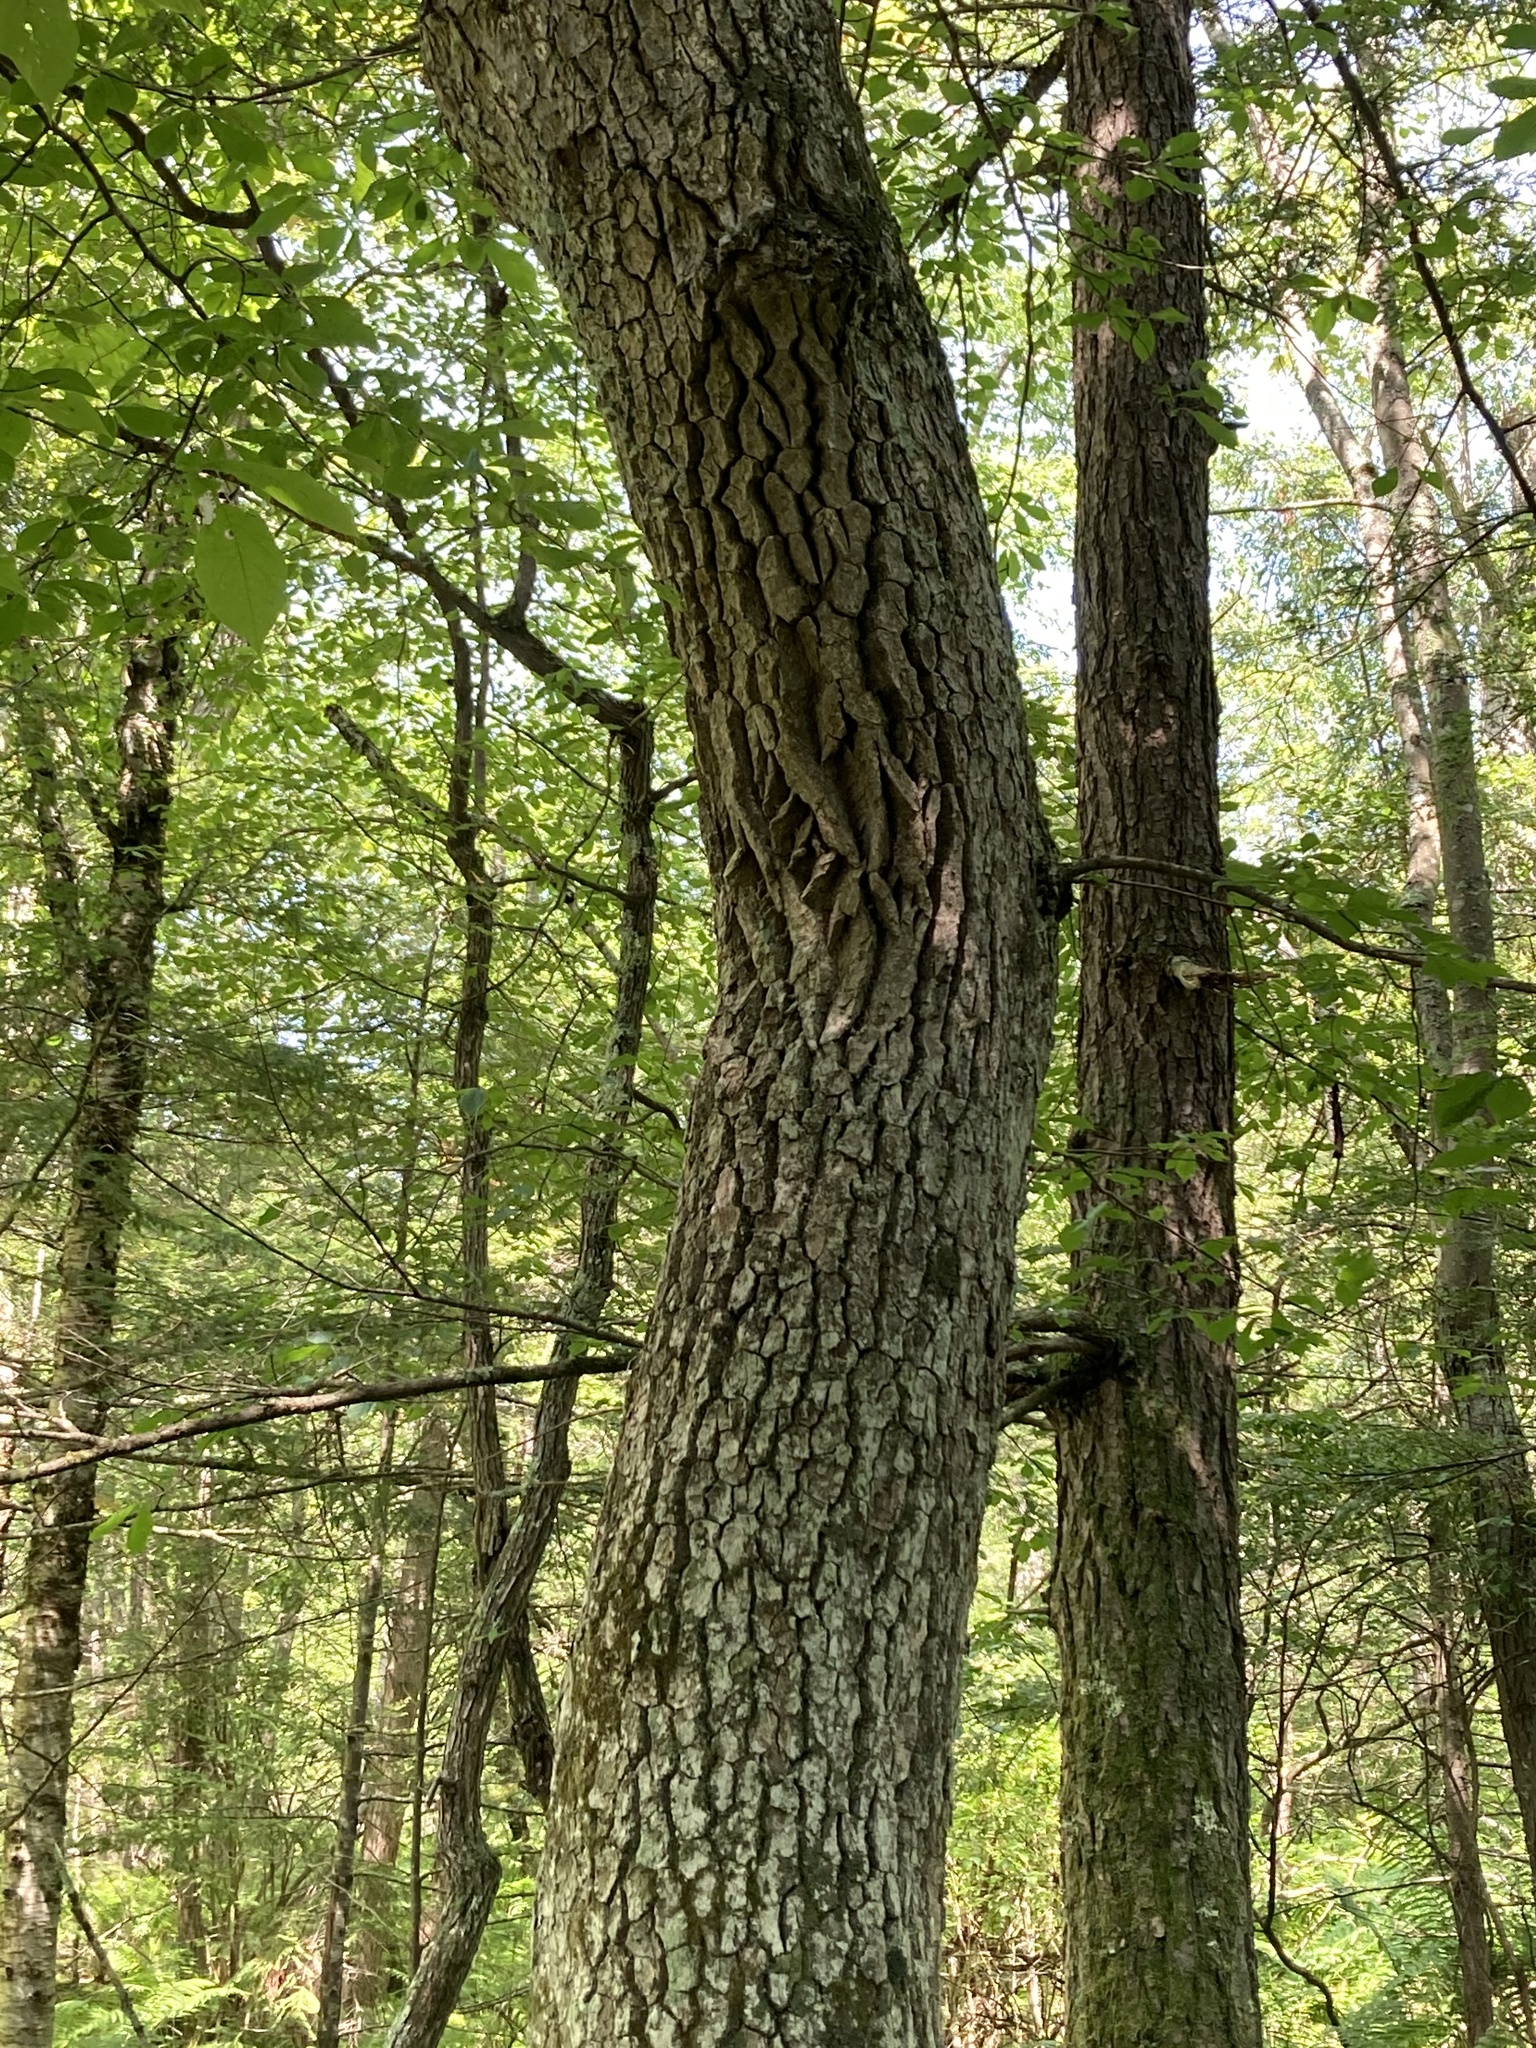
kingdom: Plantae
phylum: Tracheophyta
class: Magnoliopsida
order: Cornales
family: Nyssaceae
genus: Nyssa
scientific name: Nyssa sylvatica
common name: Black tupelo
